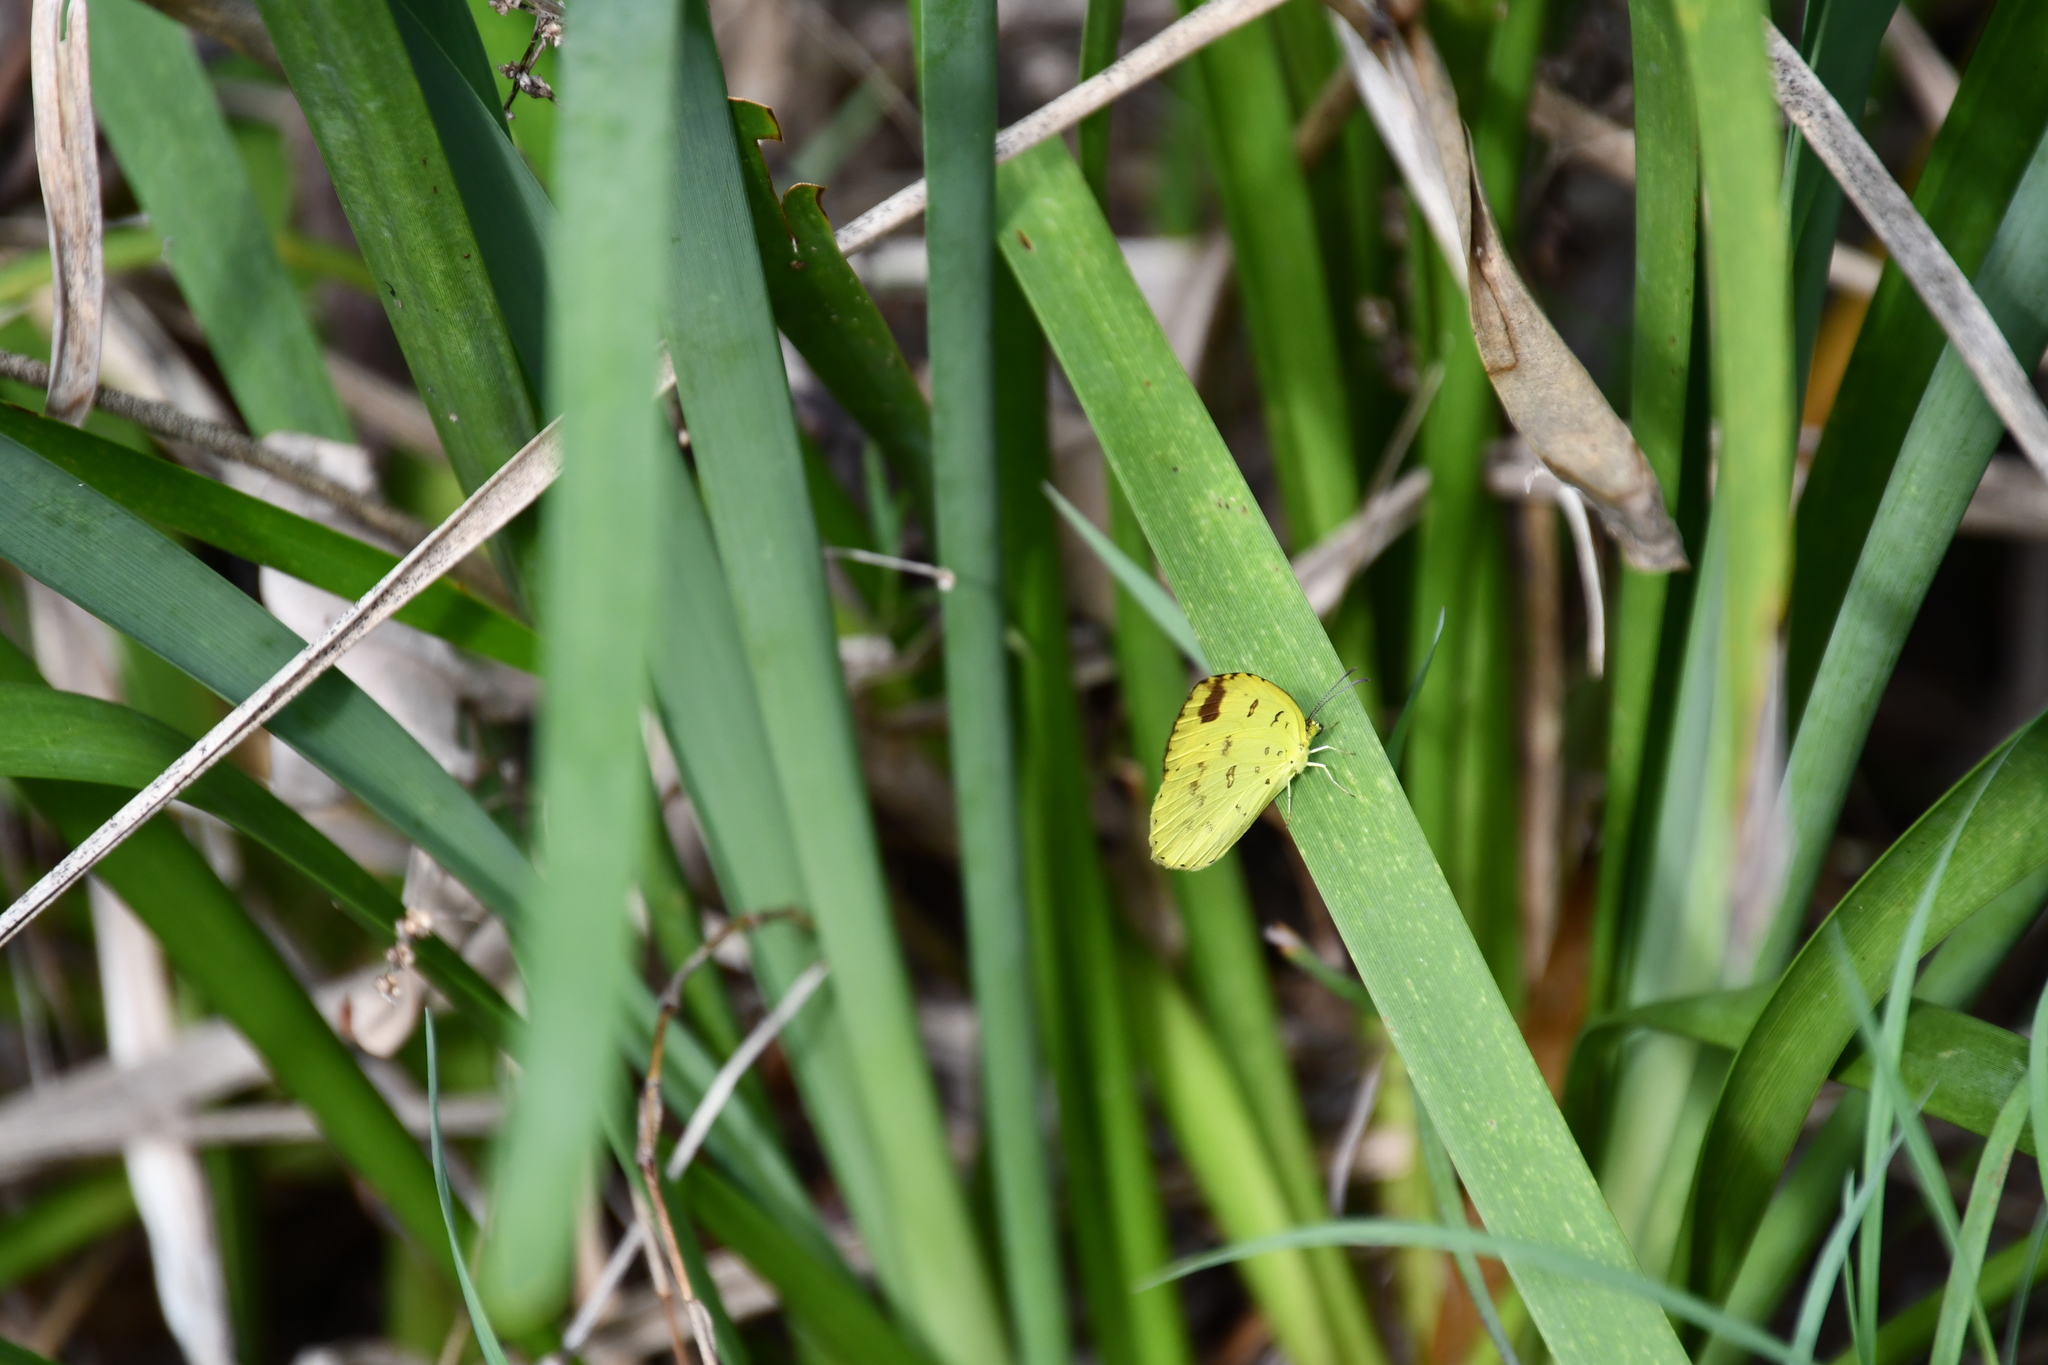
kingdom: Animalia
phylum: Arthropoda
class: Insecta
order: Lepidoptera
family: Pieridae
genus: Eurema
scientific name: Eurema hecabe
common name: Pale grass yellow
